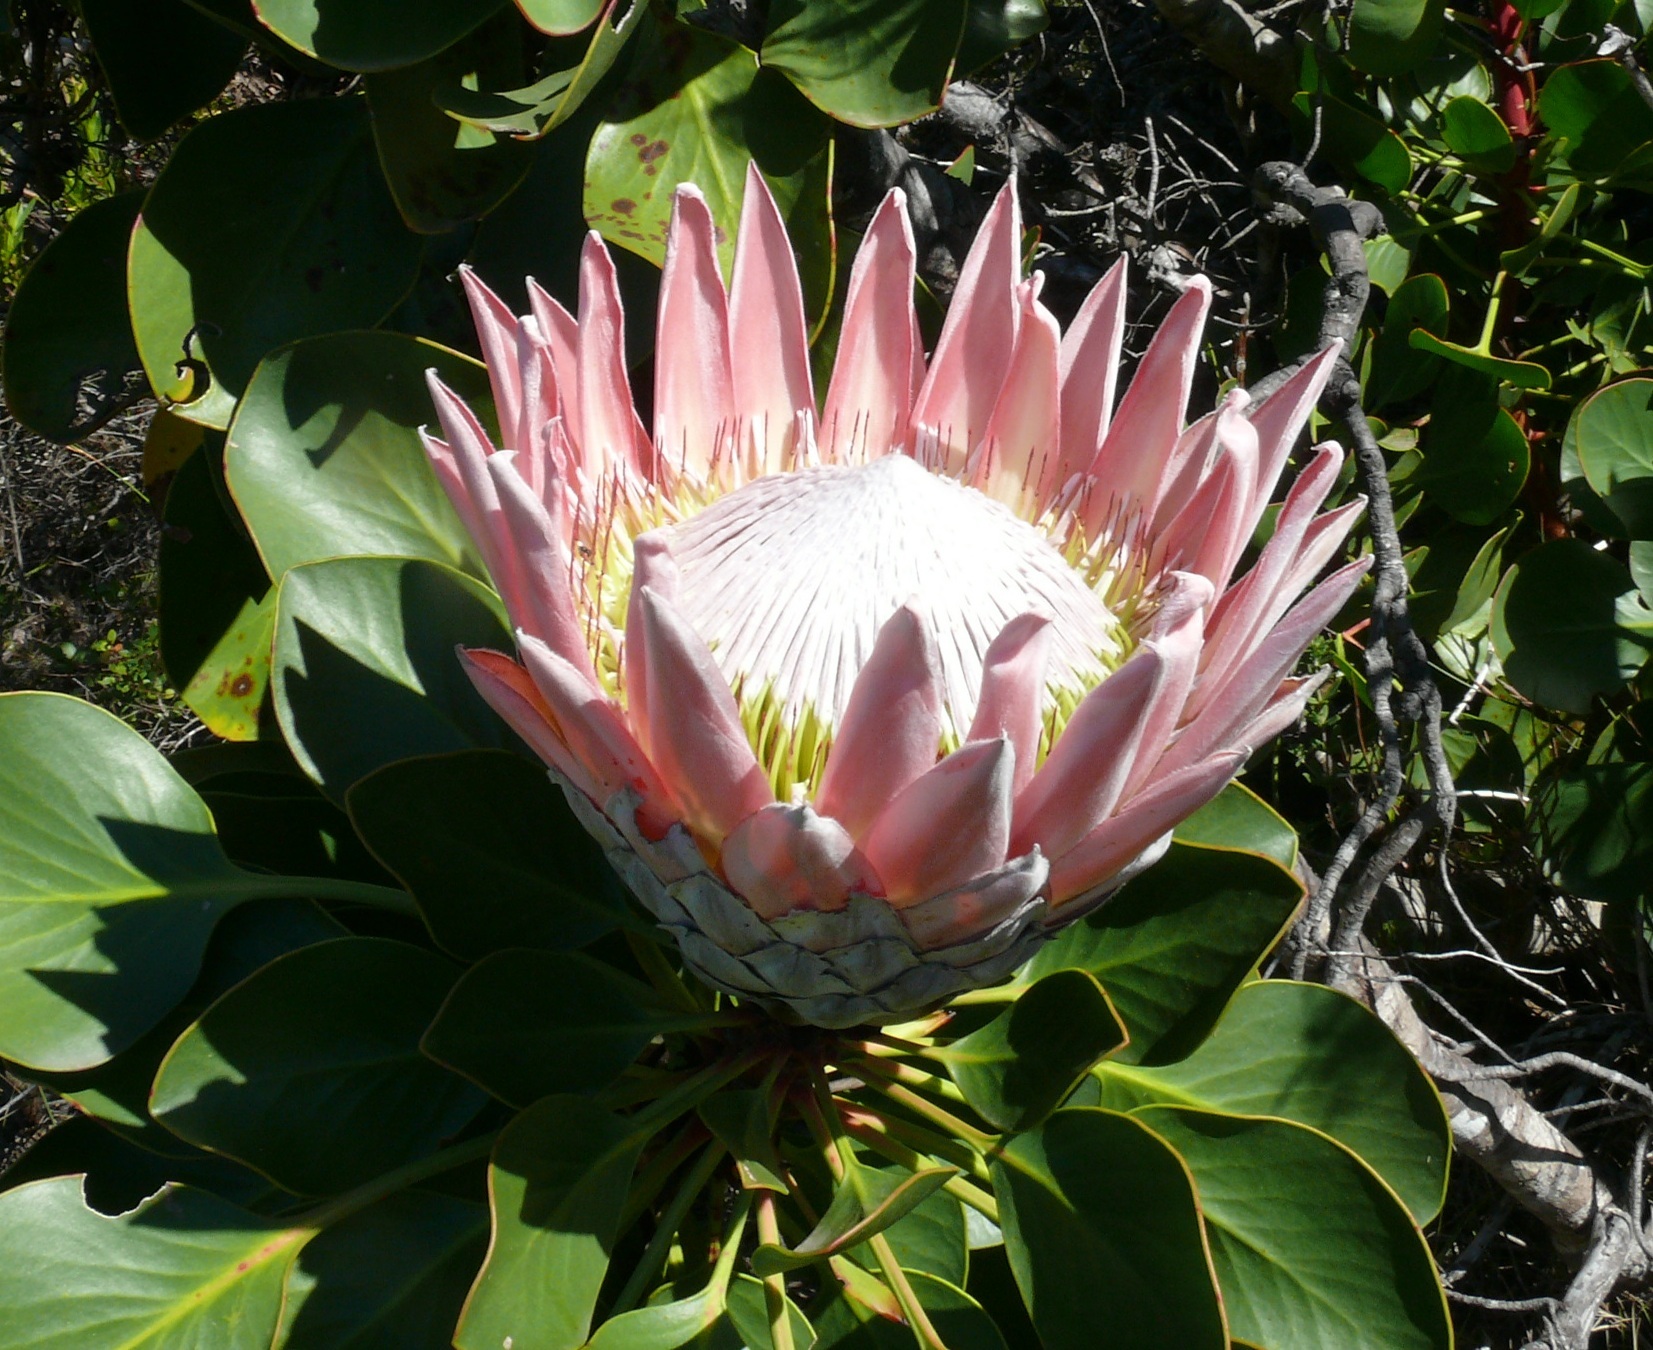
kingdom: Plantae
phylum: Tracheophyta
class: Magnoliopsida
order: Proteales
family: Proteaceae
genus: Protea
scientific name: Protea cynaroides
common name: King protea
